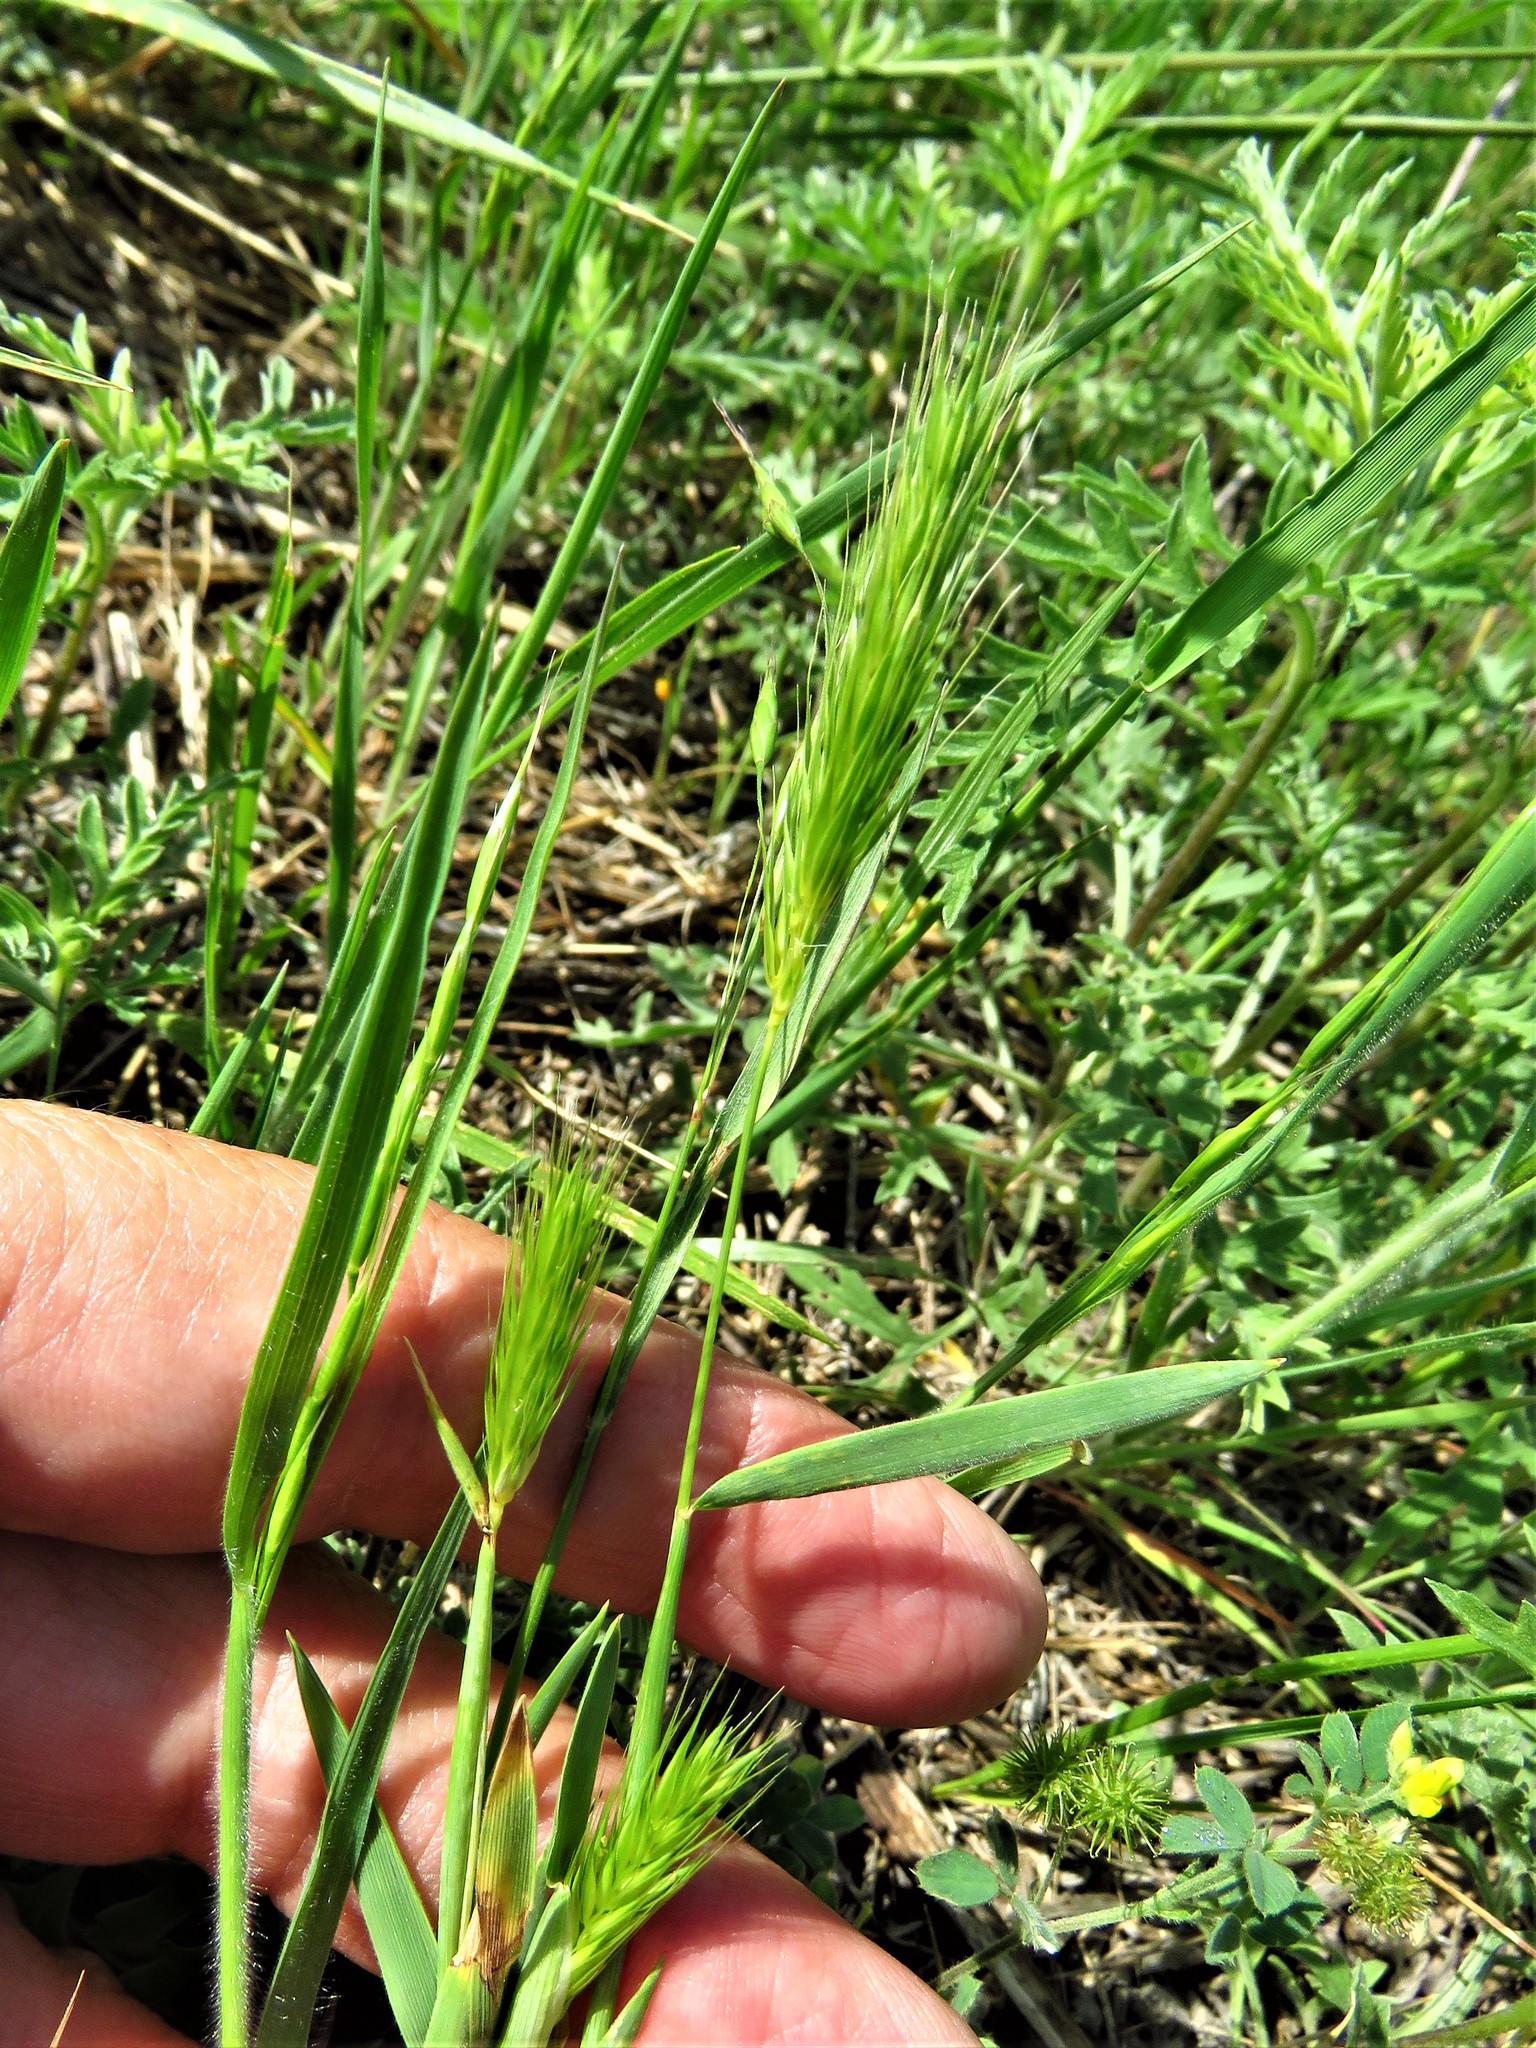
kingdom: Plantae
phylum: Tracheophyta
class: Liliopsida
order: Poales
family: Poaceae
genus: Hordeum
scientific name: Hordeum pusillum
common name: Little barley
